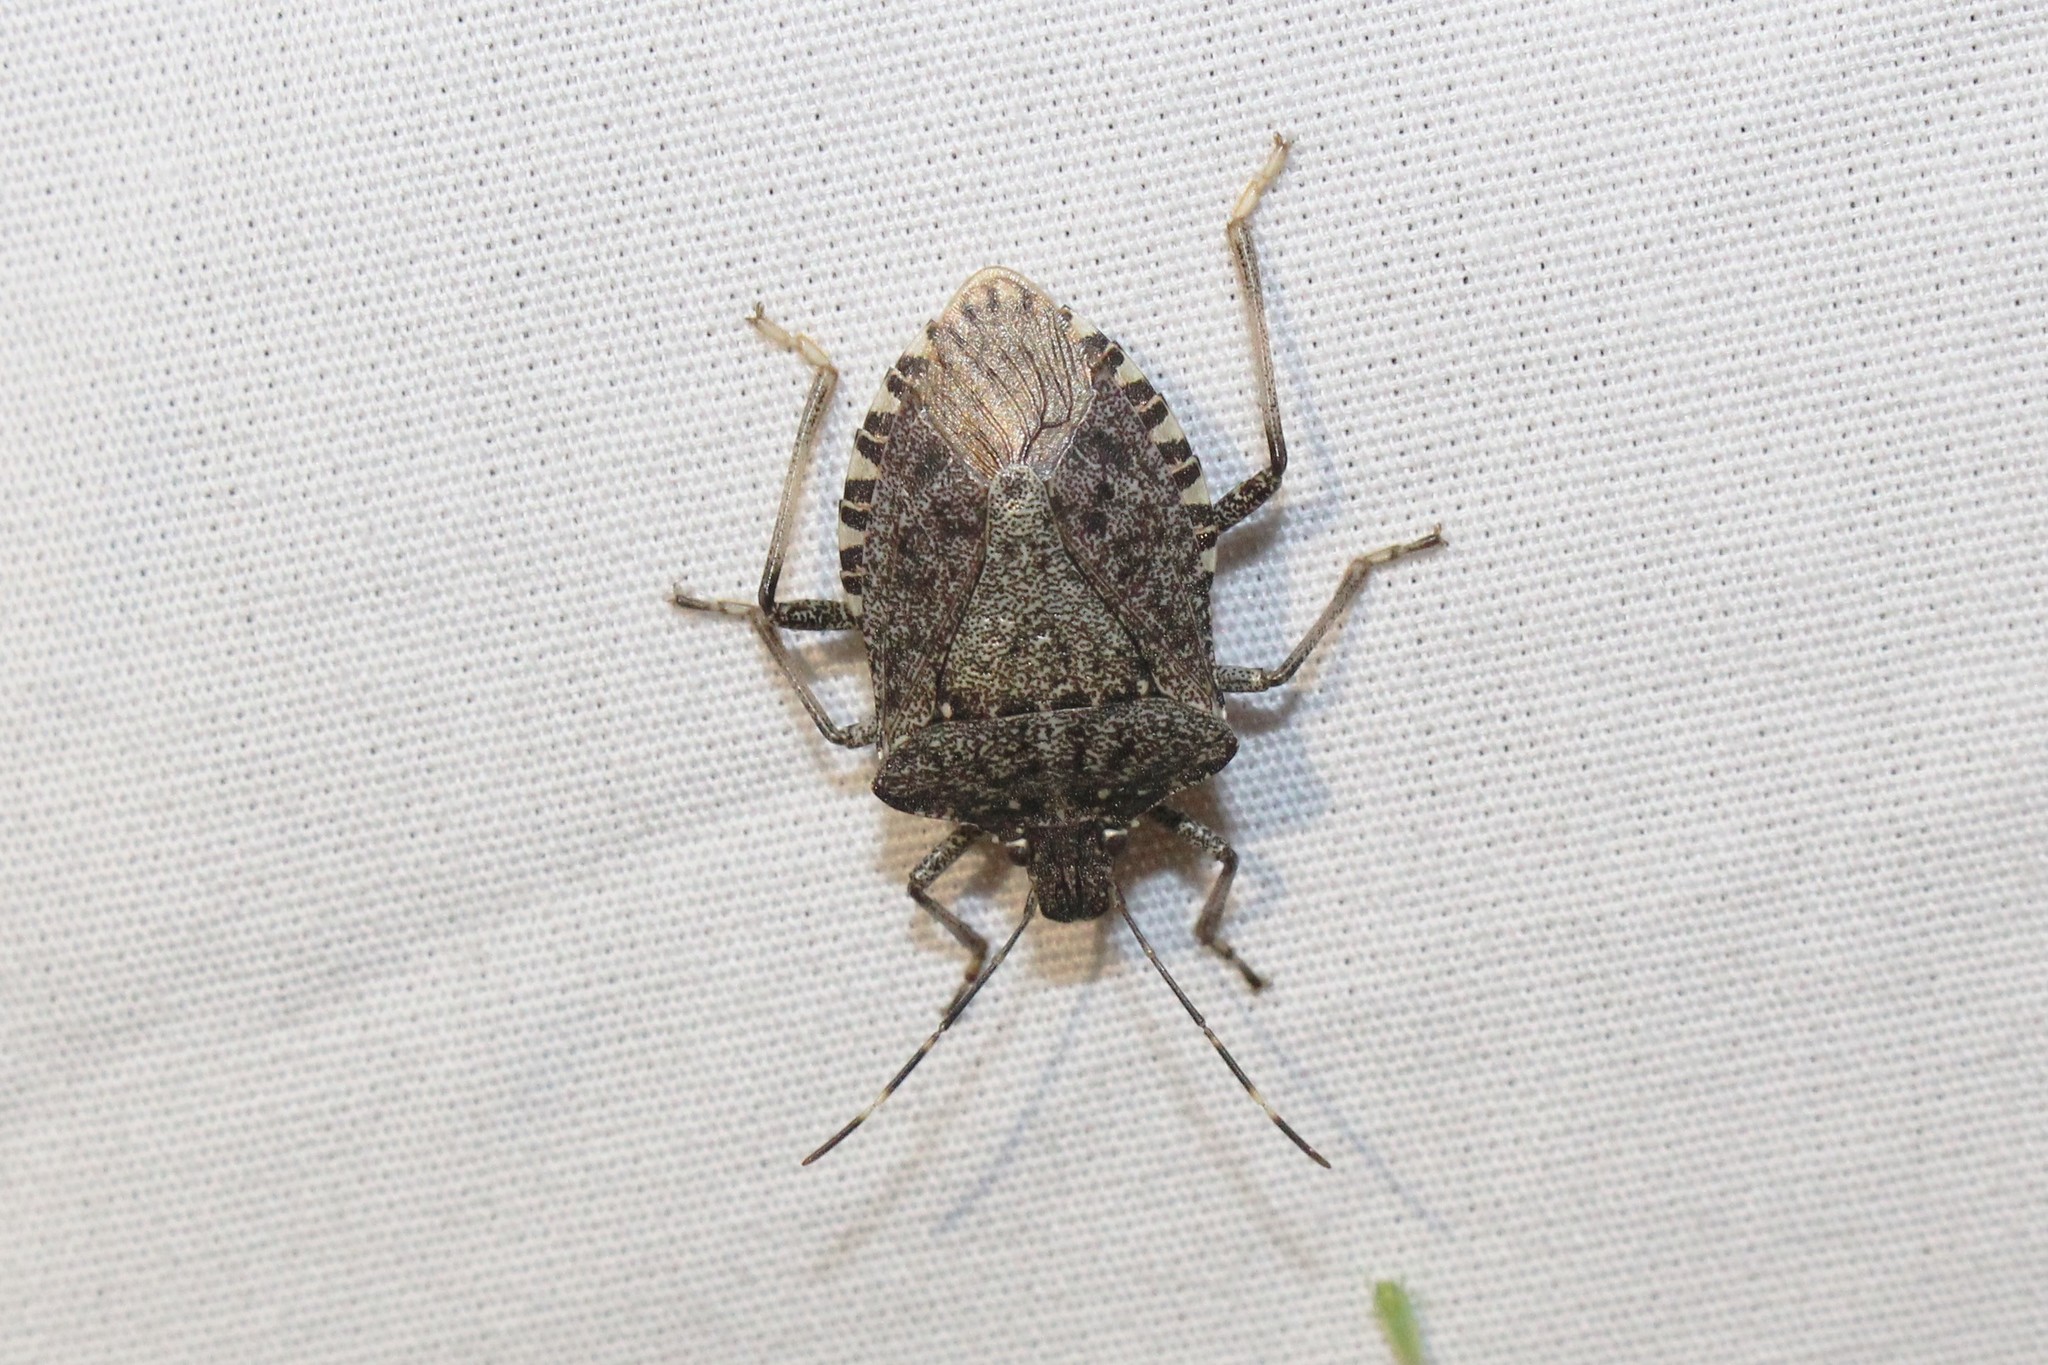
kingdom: Animalia
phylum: Arthropoda
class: Insecta
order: Hemiptera
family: Pentatomidae
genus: Halyomorpha
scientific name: Halyomorpha halys
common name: Brown marmorated stink bug
